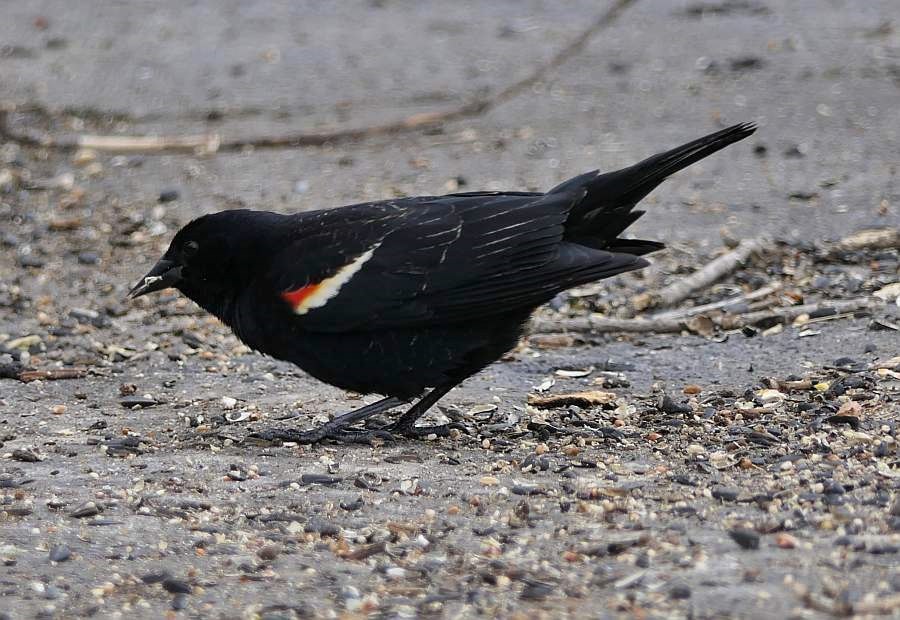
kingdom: Animalia
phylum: Chordata
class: Aves
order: Passeriformes
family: Icteridae
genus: Agelaius
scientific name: Agelaius phoeniceus
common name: Red-winged blackbird
